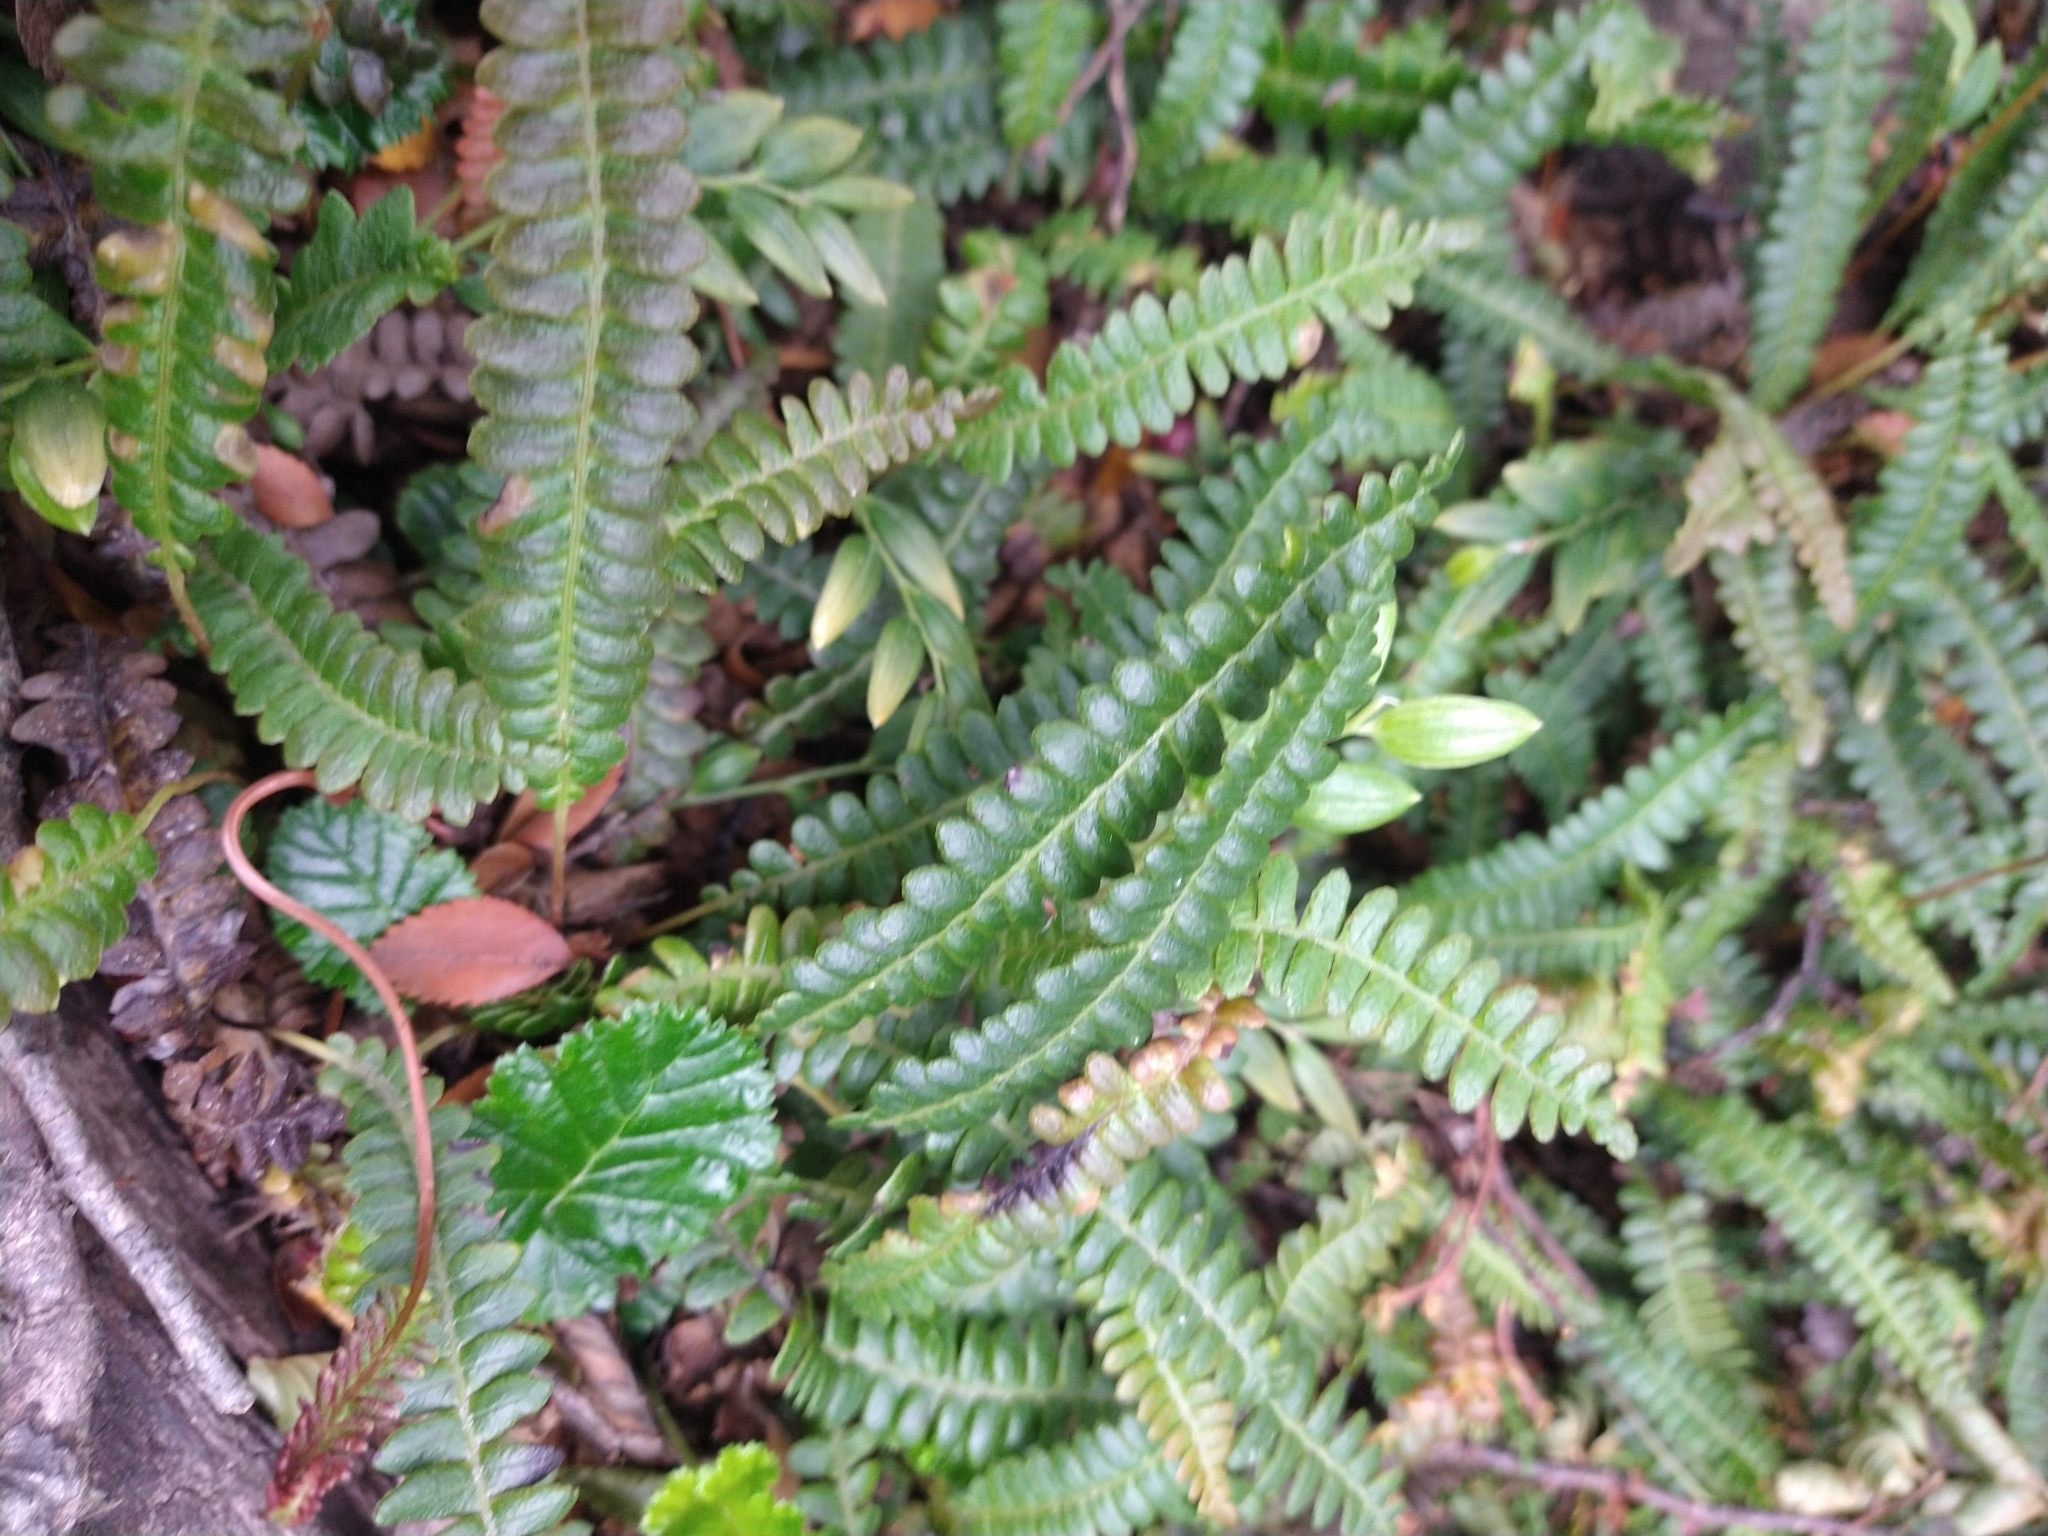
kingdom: Plantae
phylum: Tracheophyta
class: Polypodiopsida
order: Polypodiales
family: Blechnaceae
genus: Austroblechnum
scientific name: Austroblechnum penna-marina
